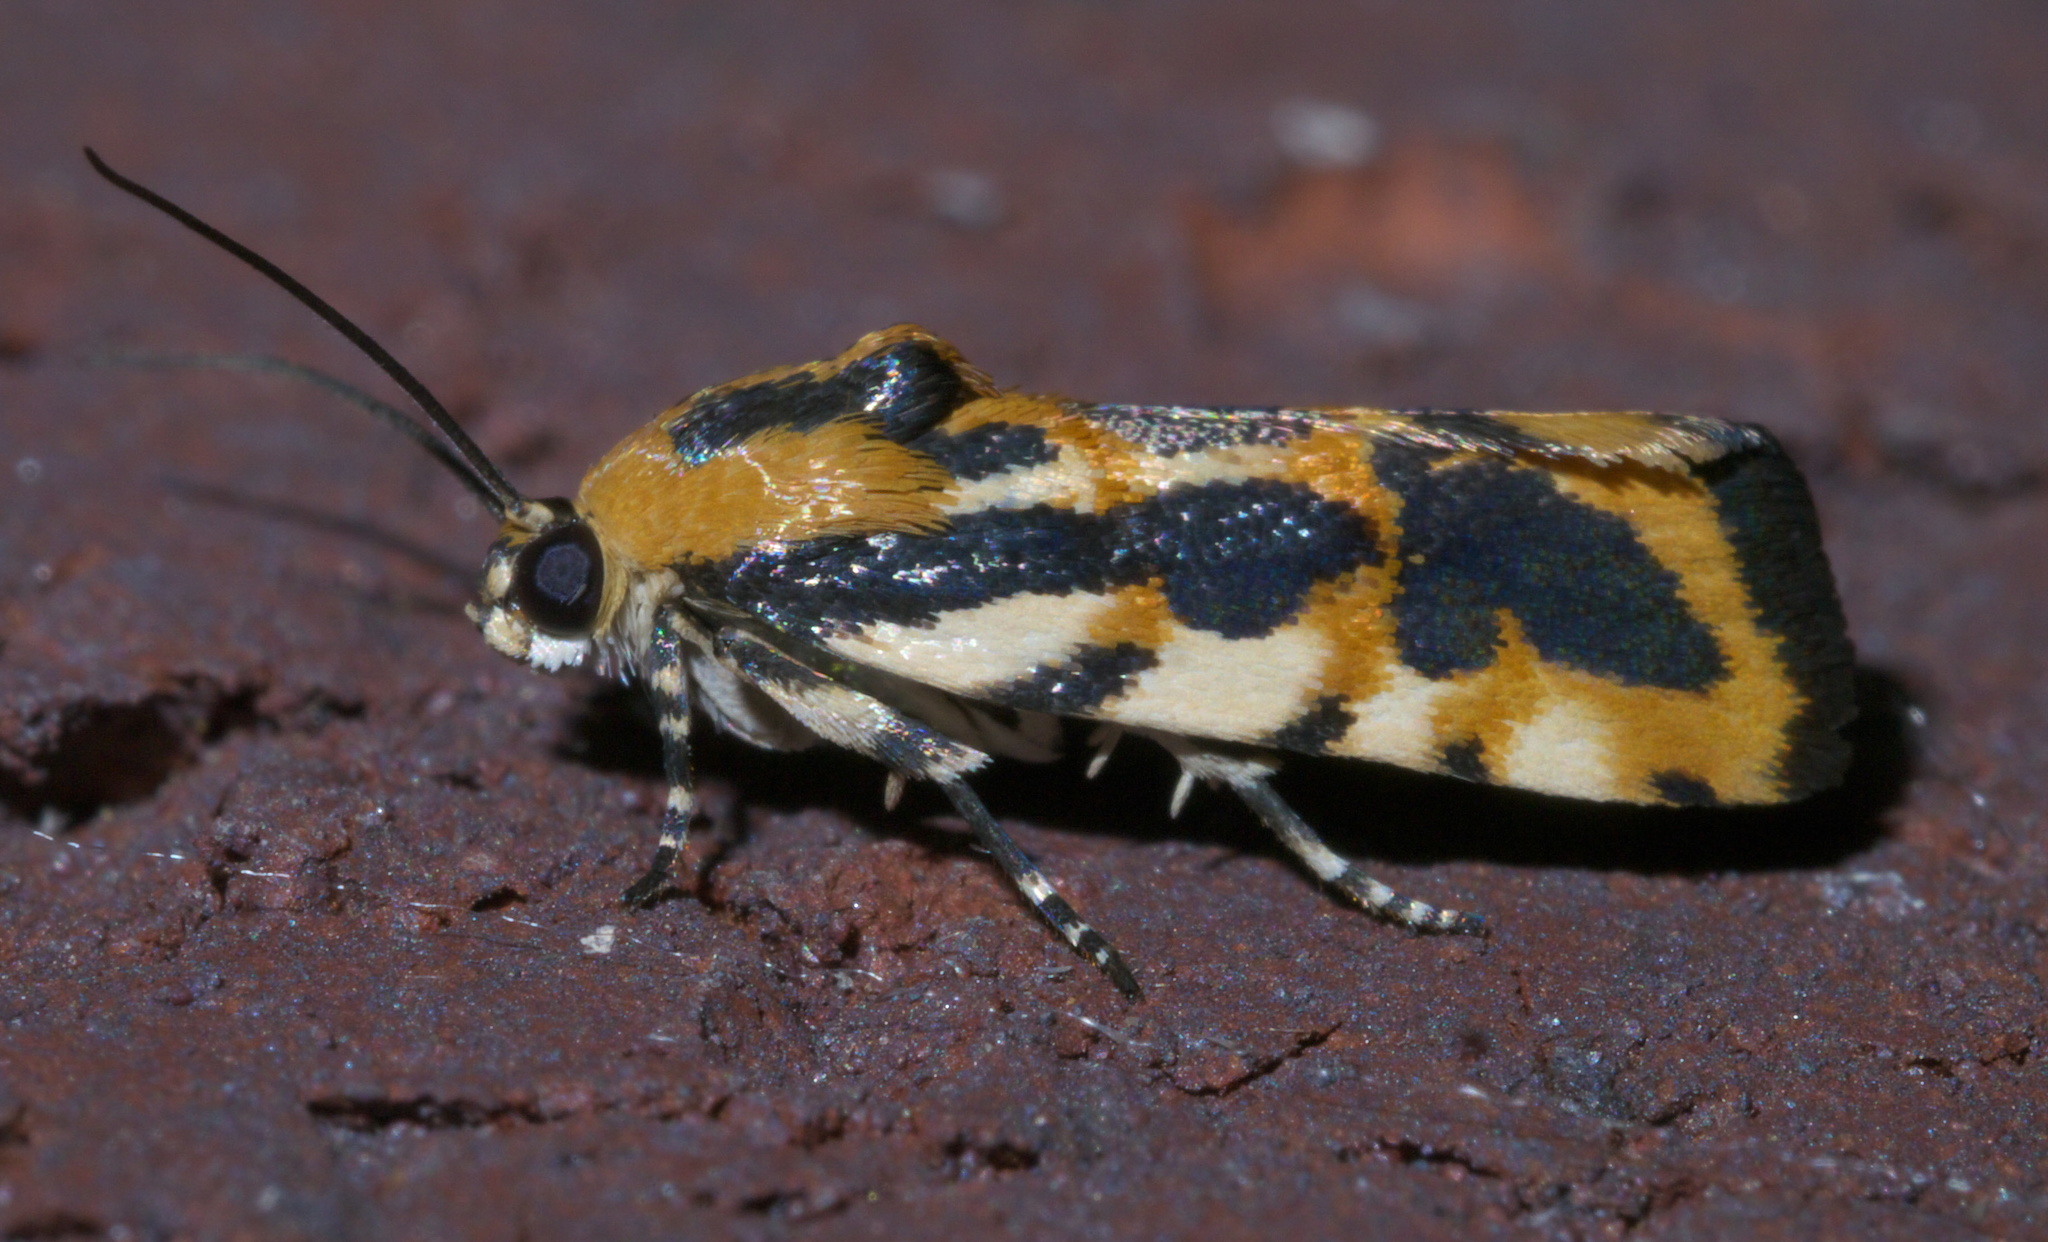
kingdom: Animalia
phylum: Arthropoda
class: Insecta
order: Lepidoptera
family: Noctuidae
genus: Acontia
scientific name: Acontia leo
